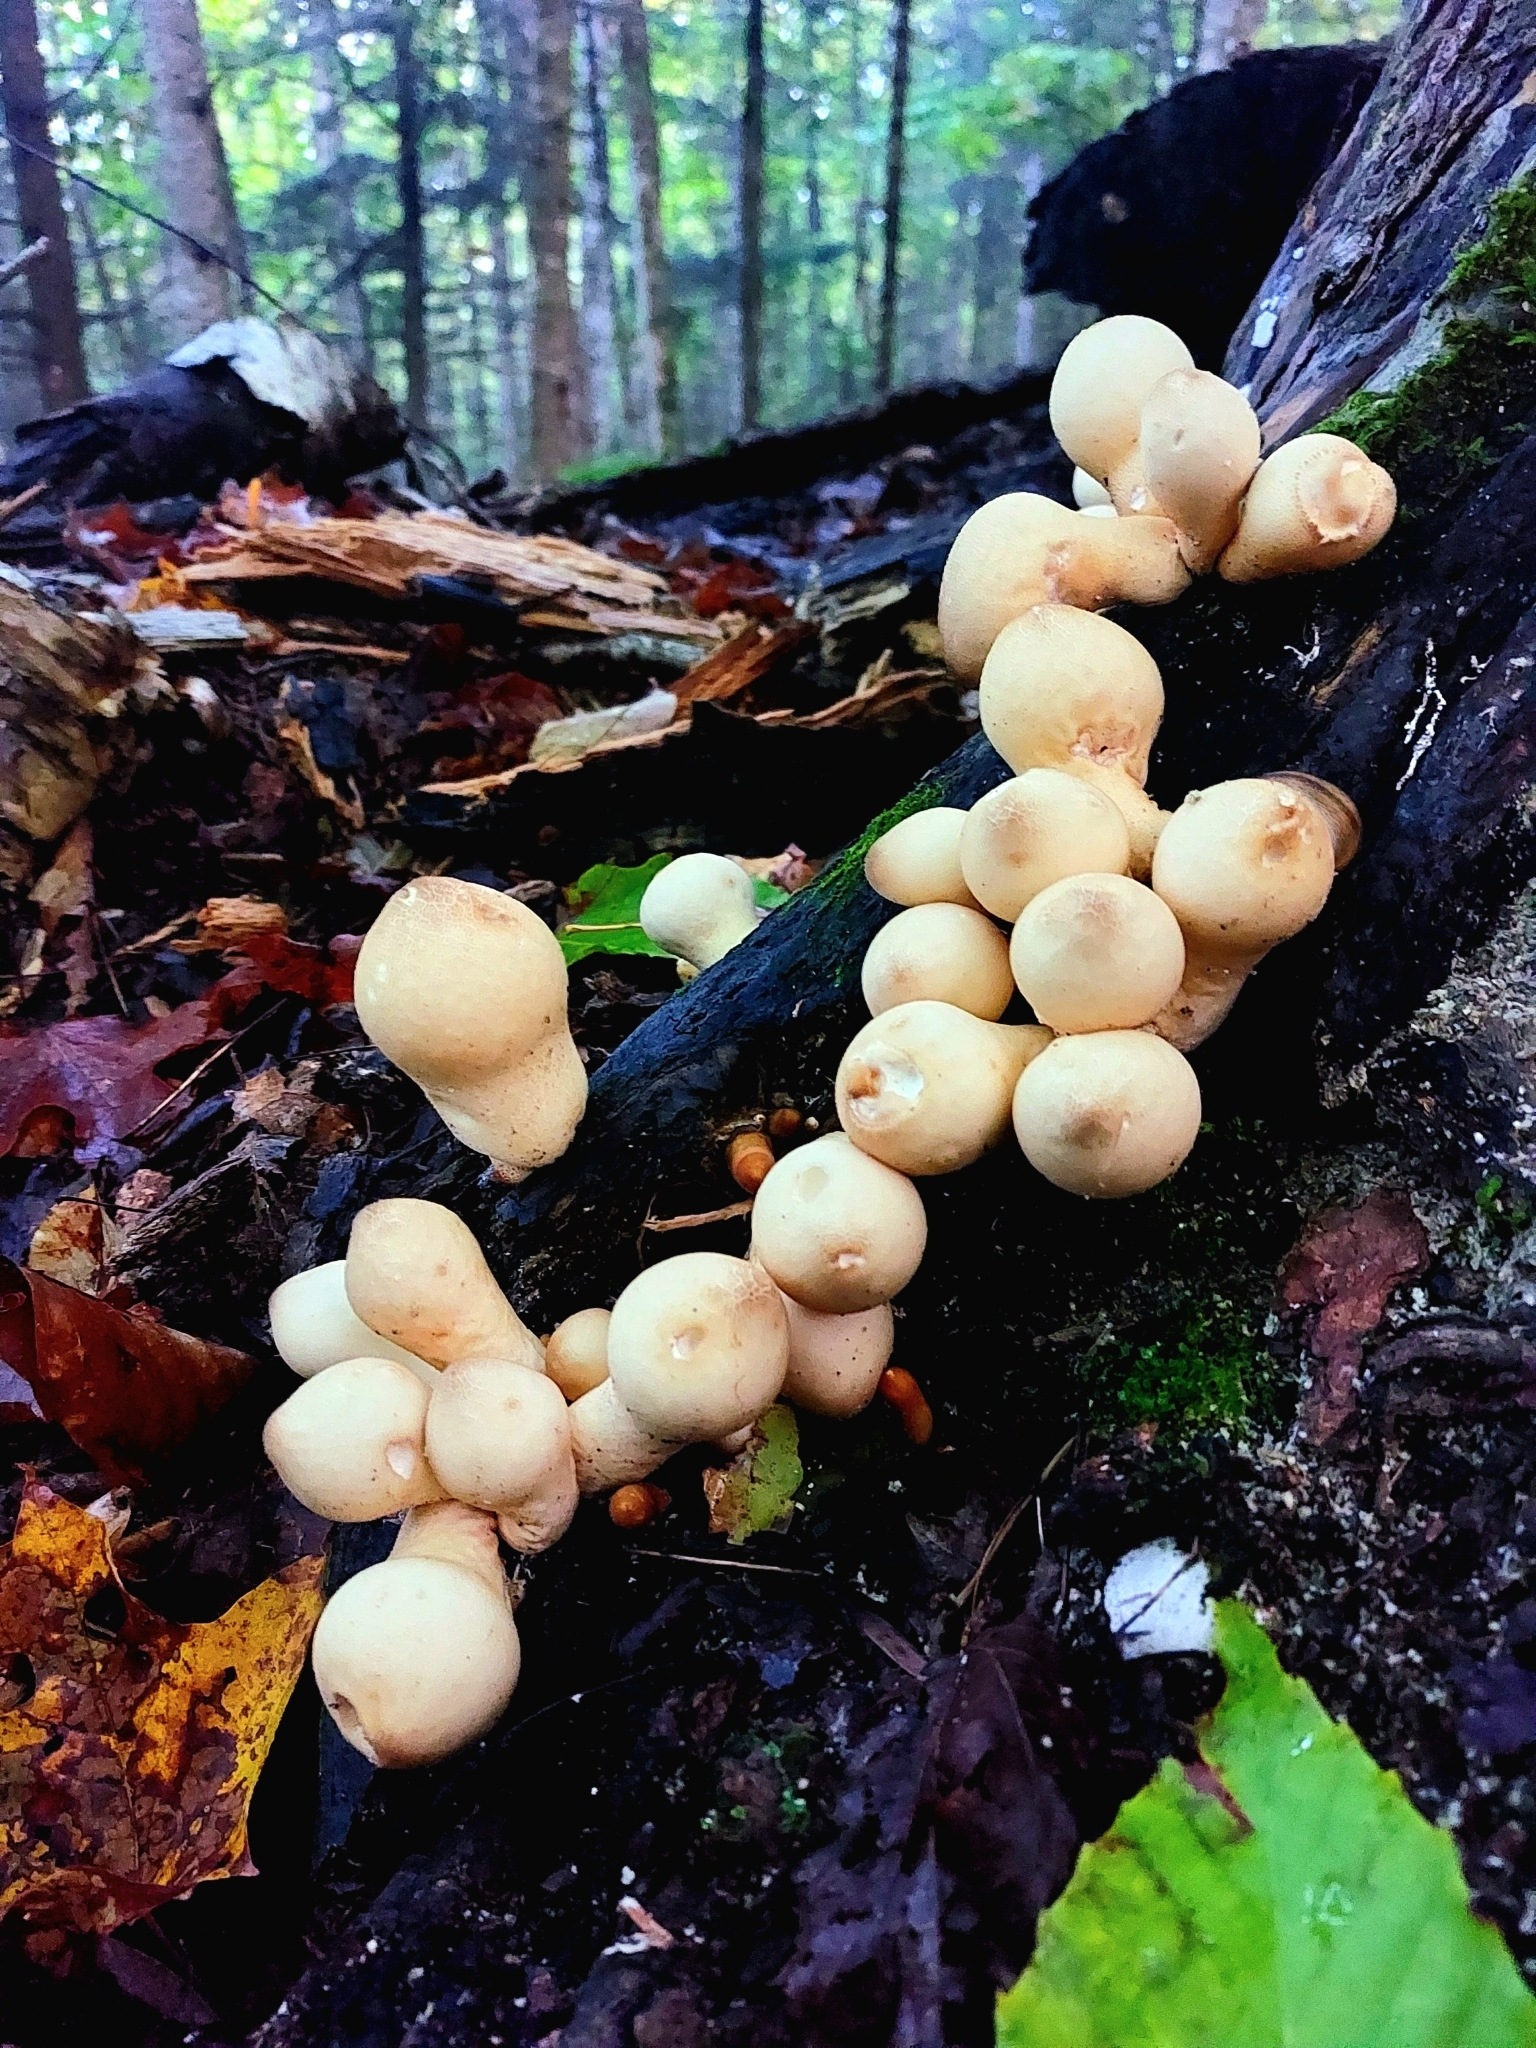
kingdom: Fungi
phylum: Basidiomycota
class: Agaricomycetes
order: Agaricales
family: Lycoperdaceae
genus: Apioperdon
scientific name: Apioperdon pyriforme
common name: Pear-shaped puffball
